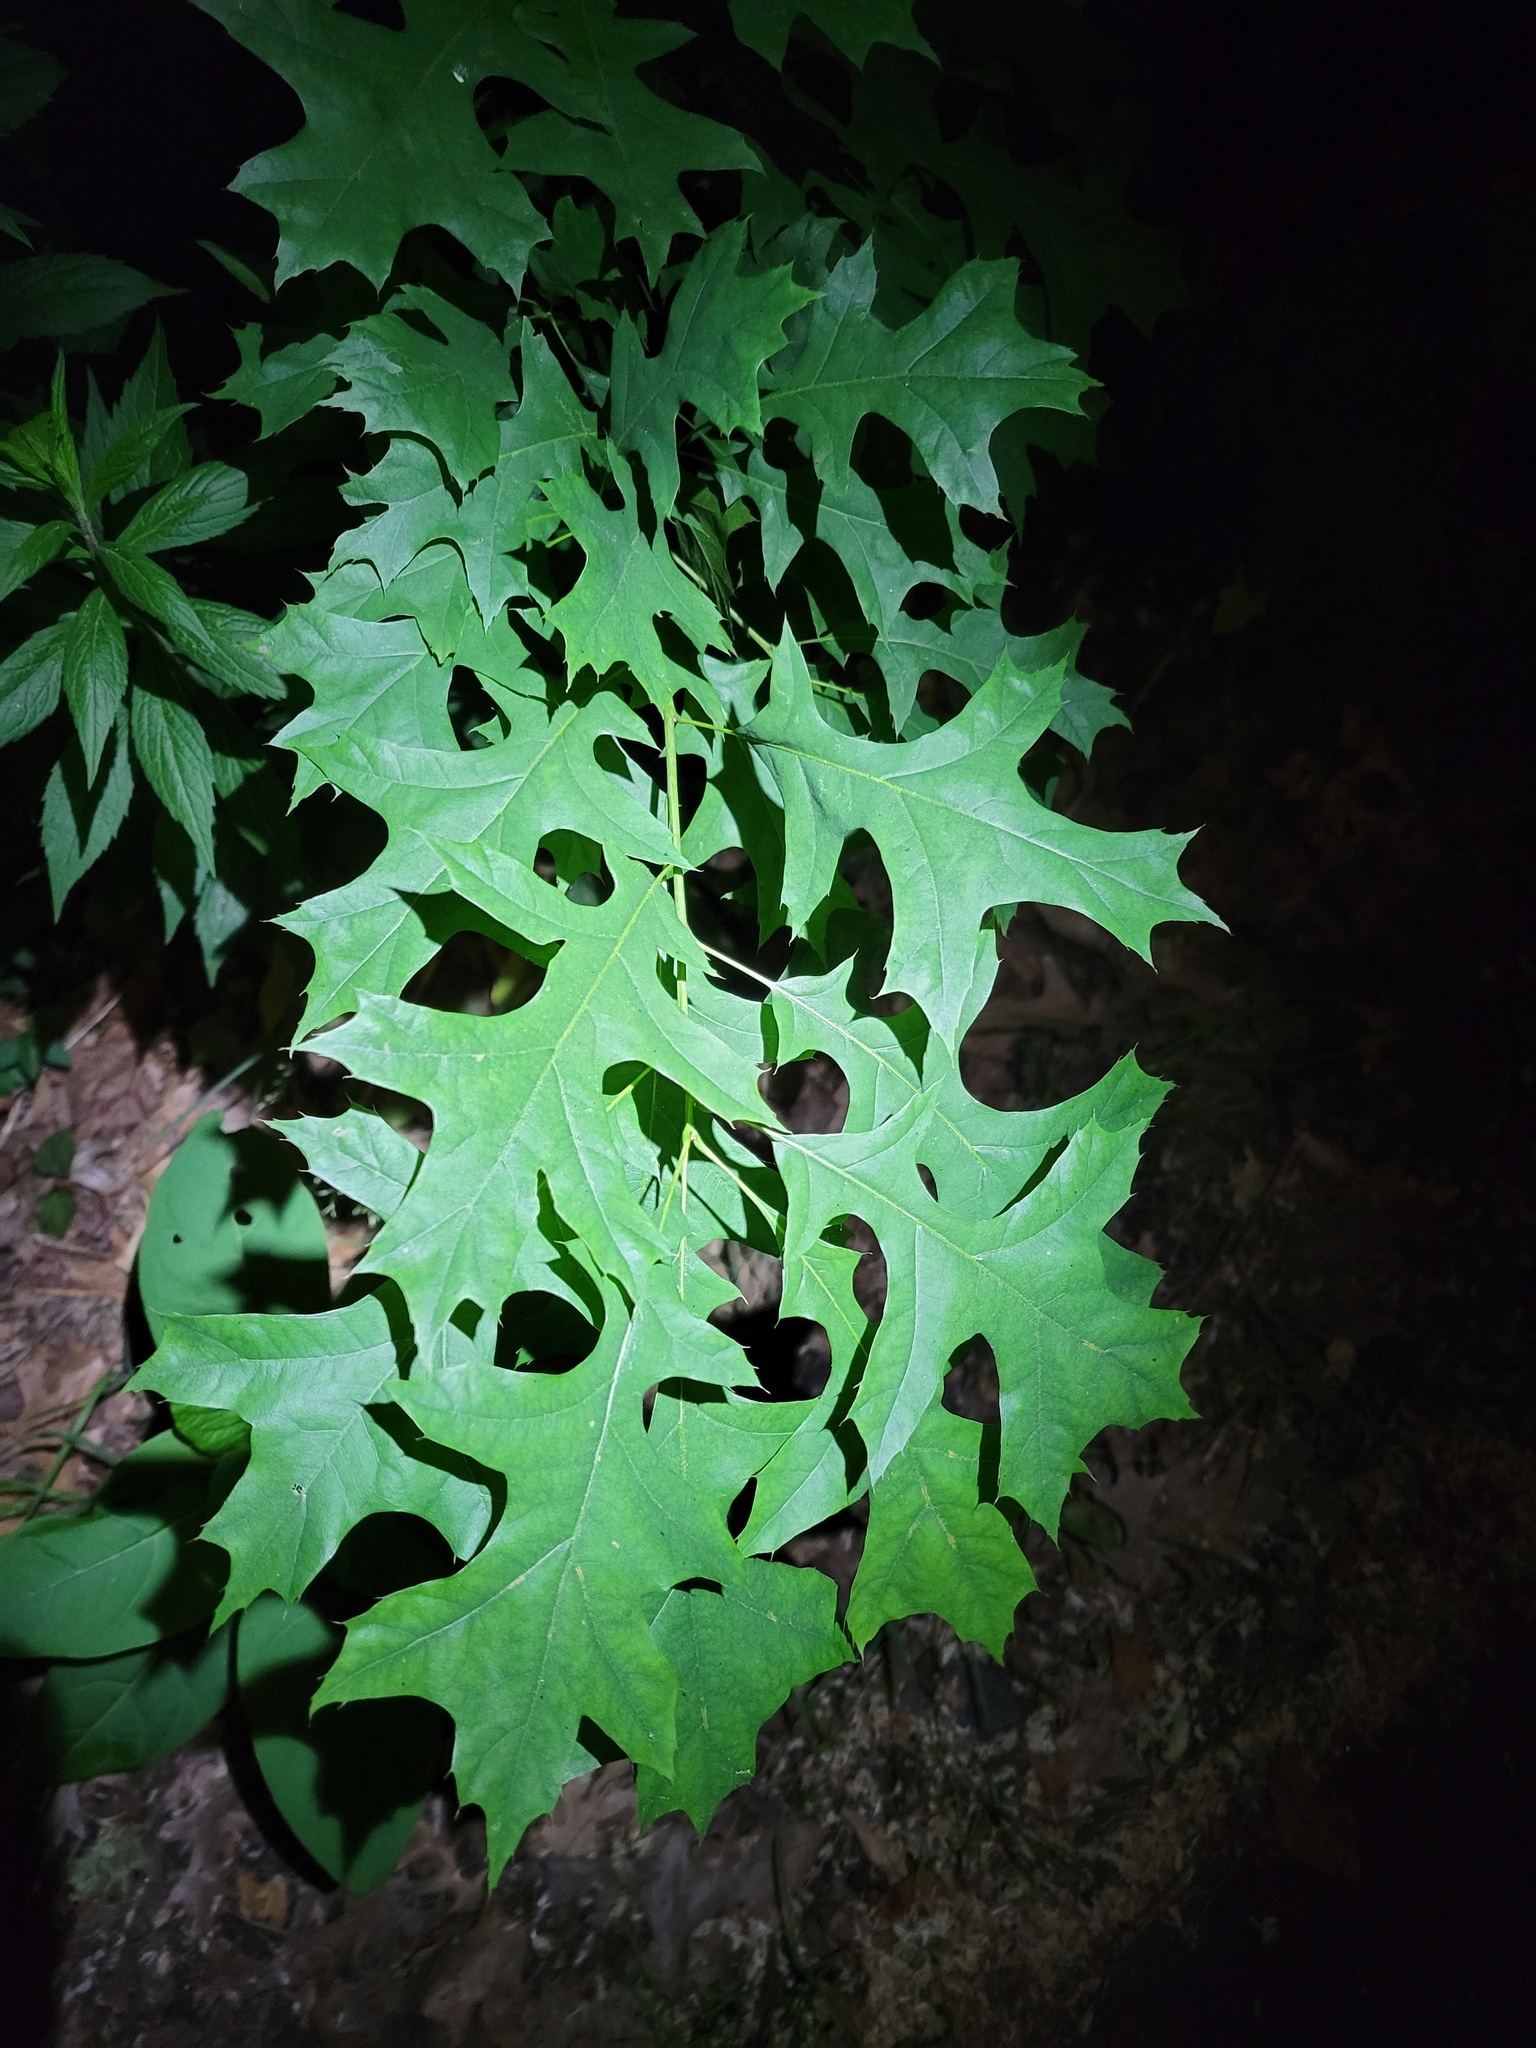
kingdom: Plantae
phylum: Tracheophyta
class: Magnoliopsida
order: Fagales
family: Fagaceae
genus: Quercus
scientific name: Quercus coccinea
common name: Scarlet oak
